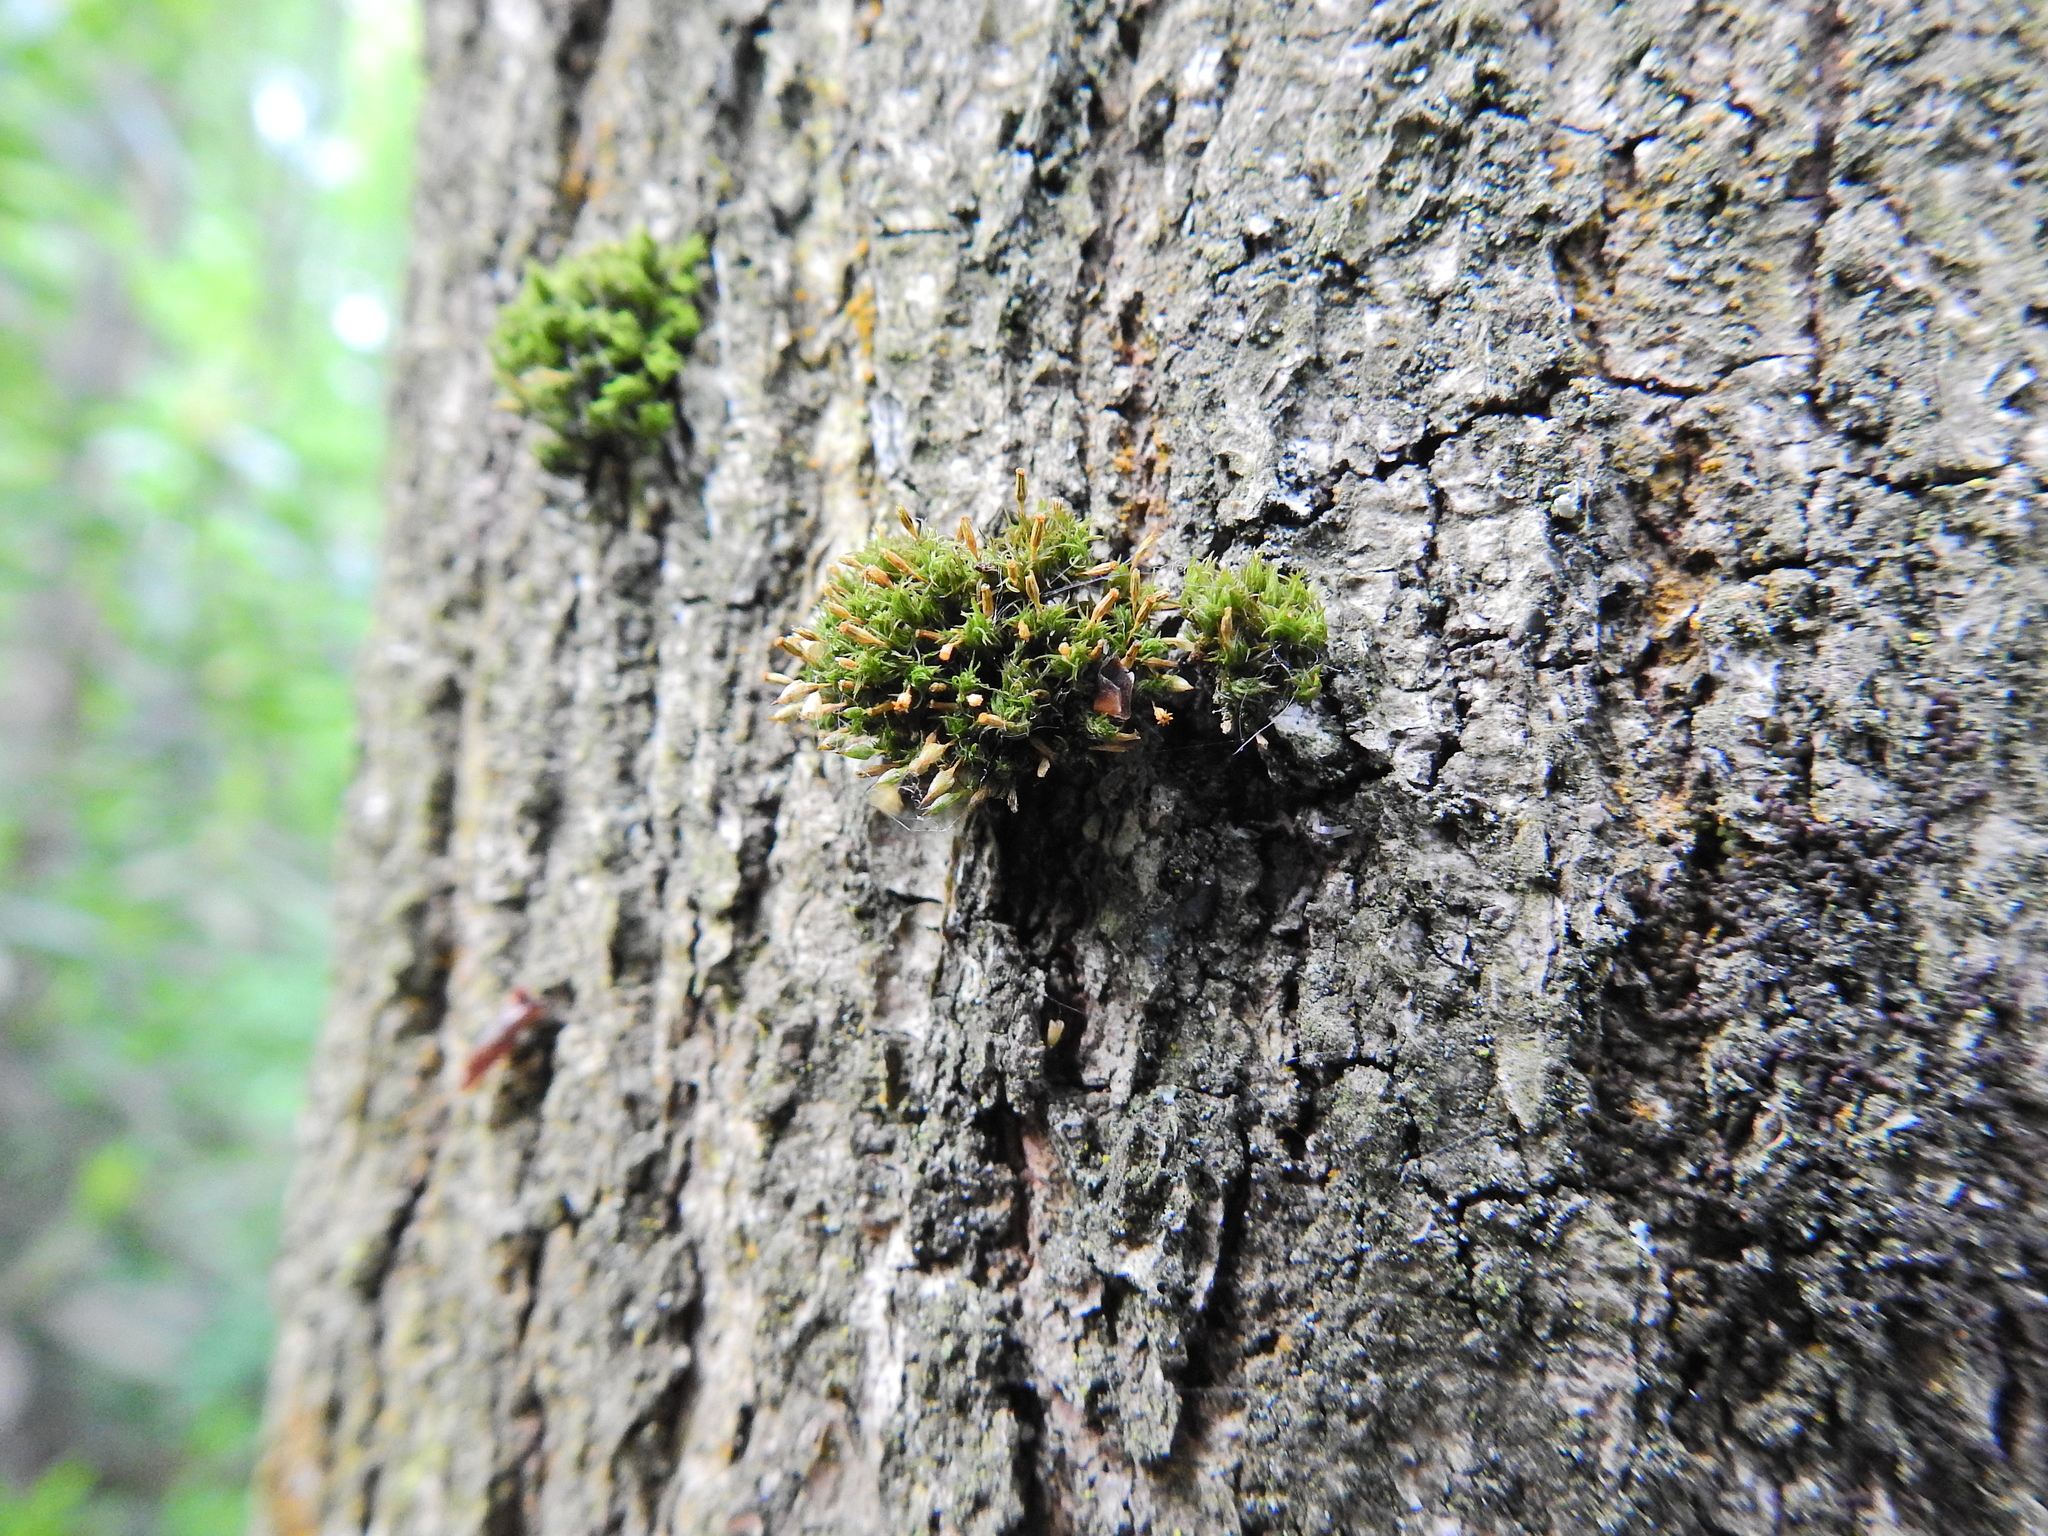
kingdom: Plantae
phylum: Bryophyta
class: Bryopsida
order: Orthotrichales
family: Orthotrichaceae
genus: Orthotrichum
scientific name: Orthotrichum pulchellum
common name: Elegant bristle-moss
